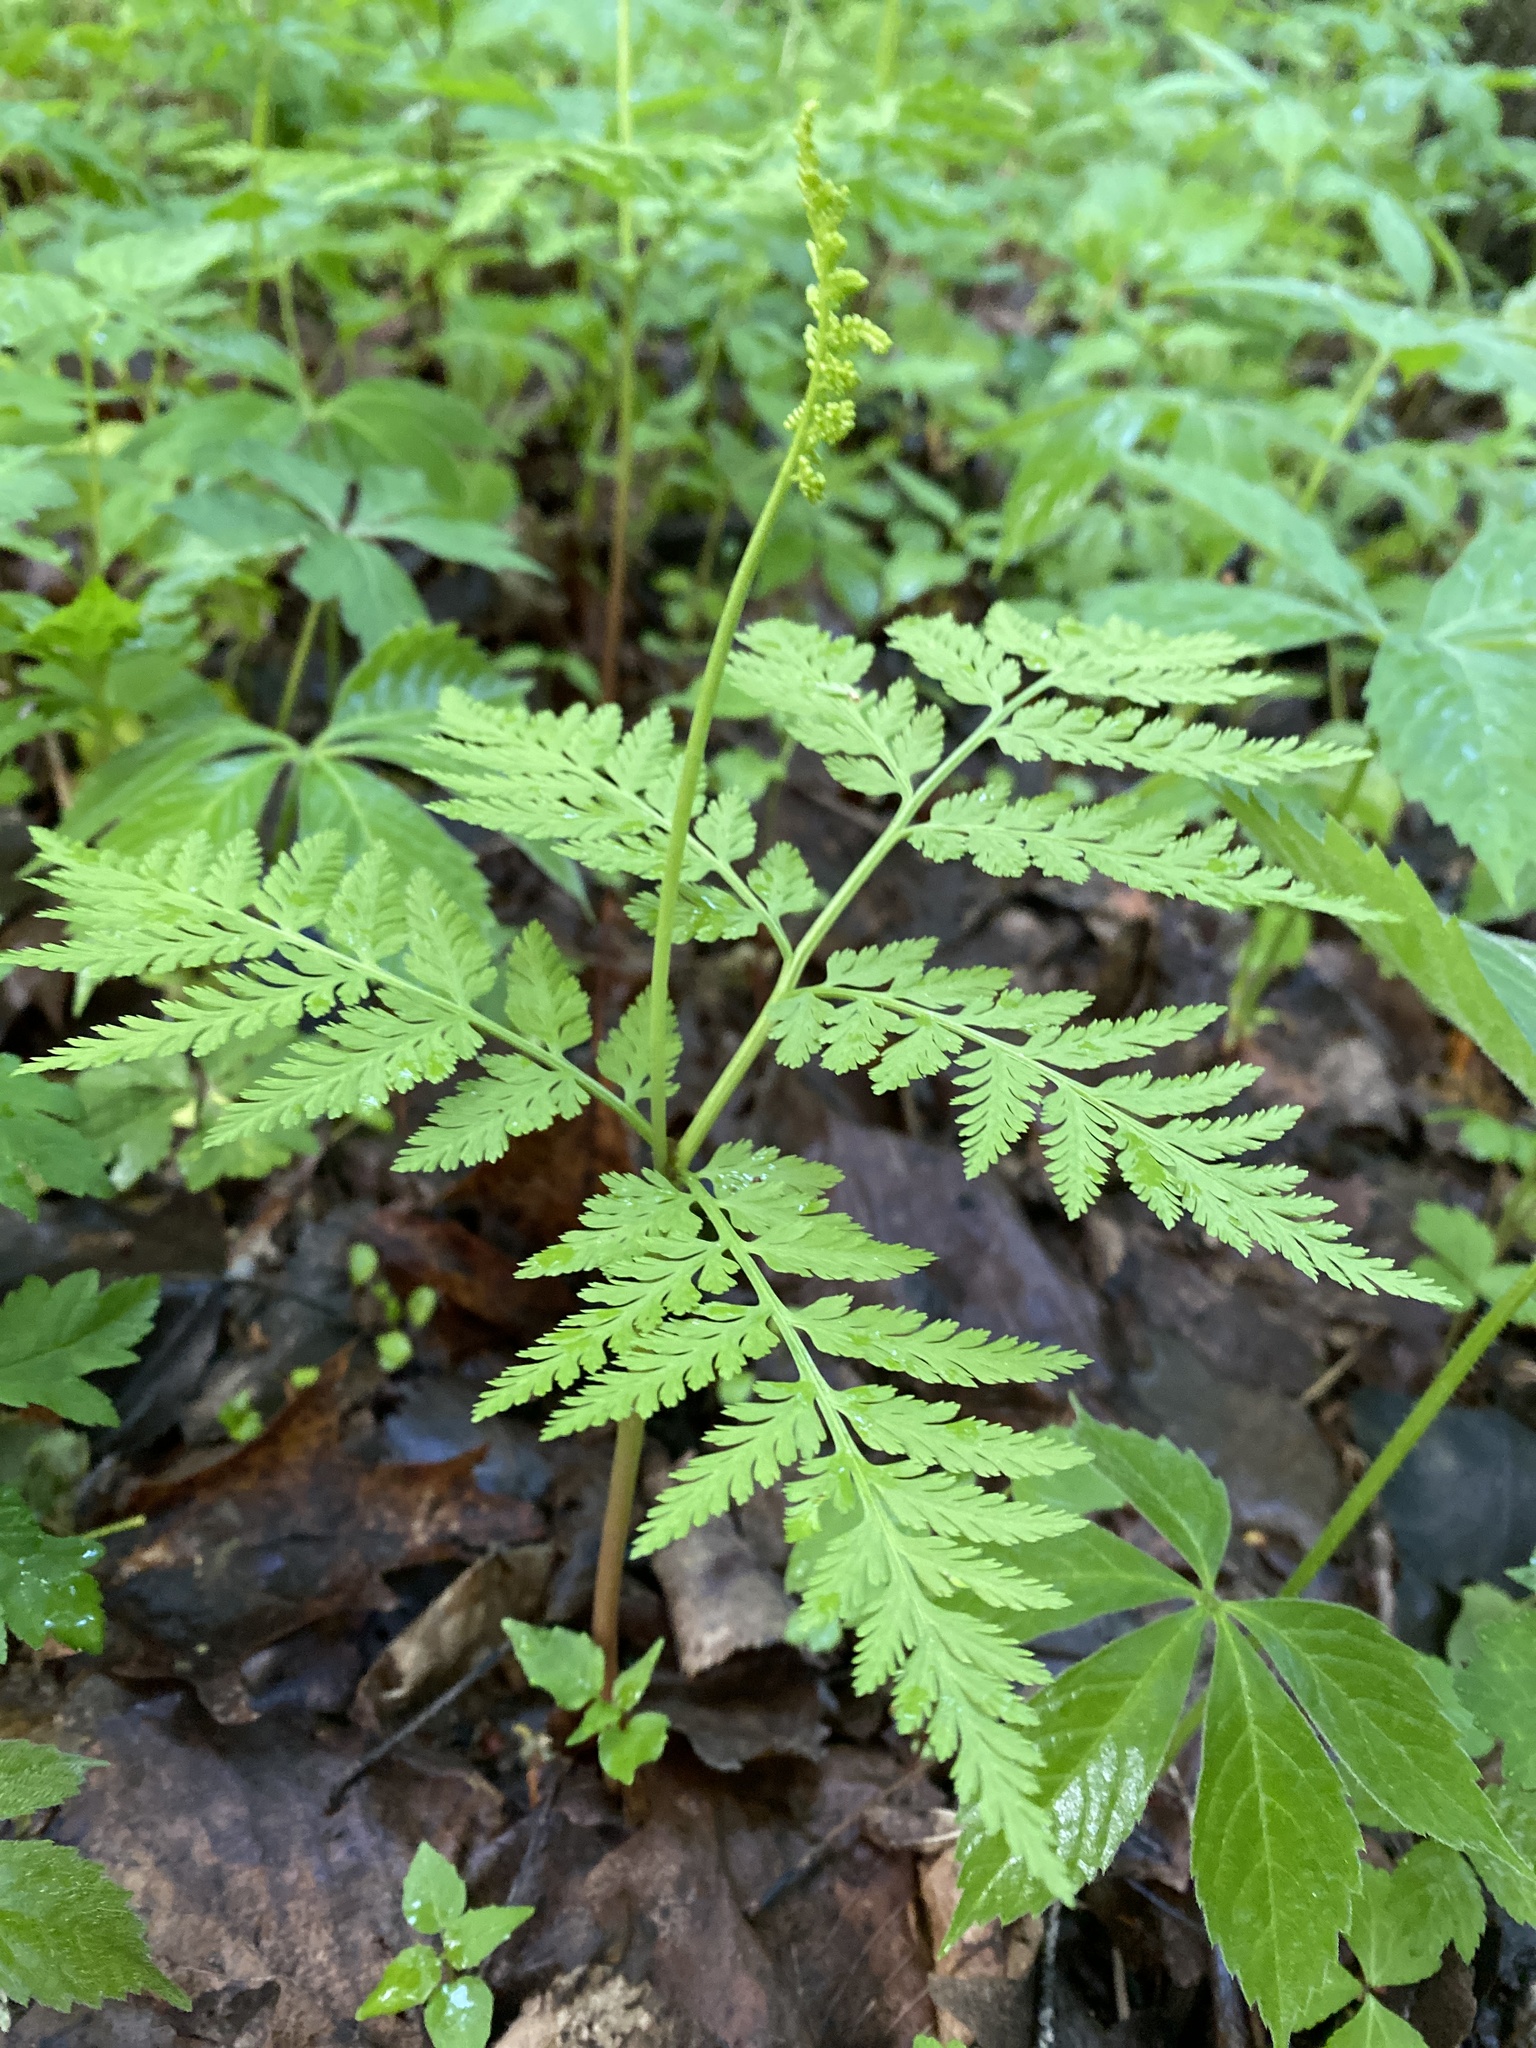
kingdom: Plantae
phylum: Tracheophyta
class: Polypodiopsida
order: Ophioglossales
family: Ophioglossaceae
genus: Botrypus
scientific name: Botrypus virginianus
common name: Common grapefern
